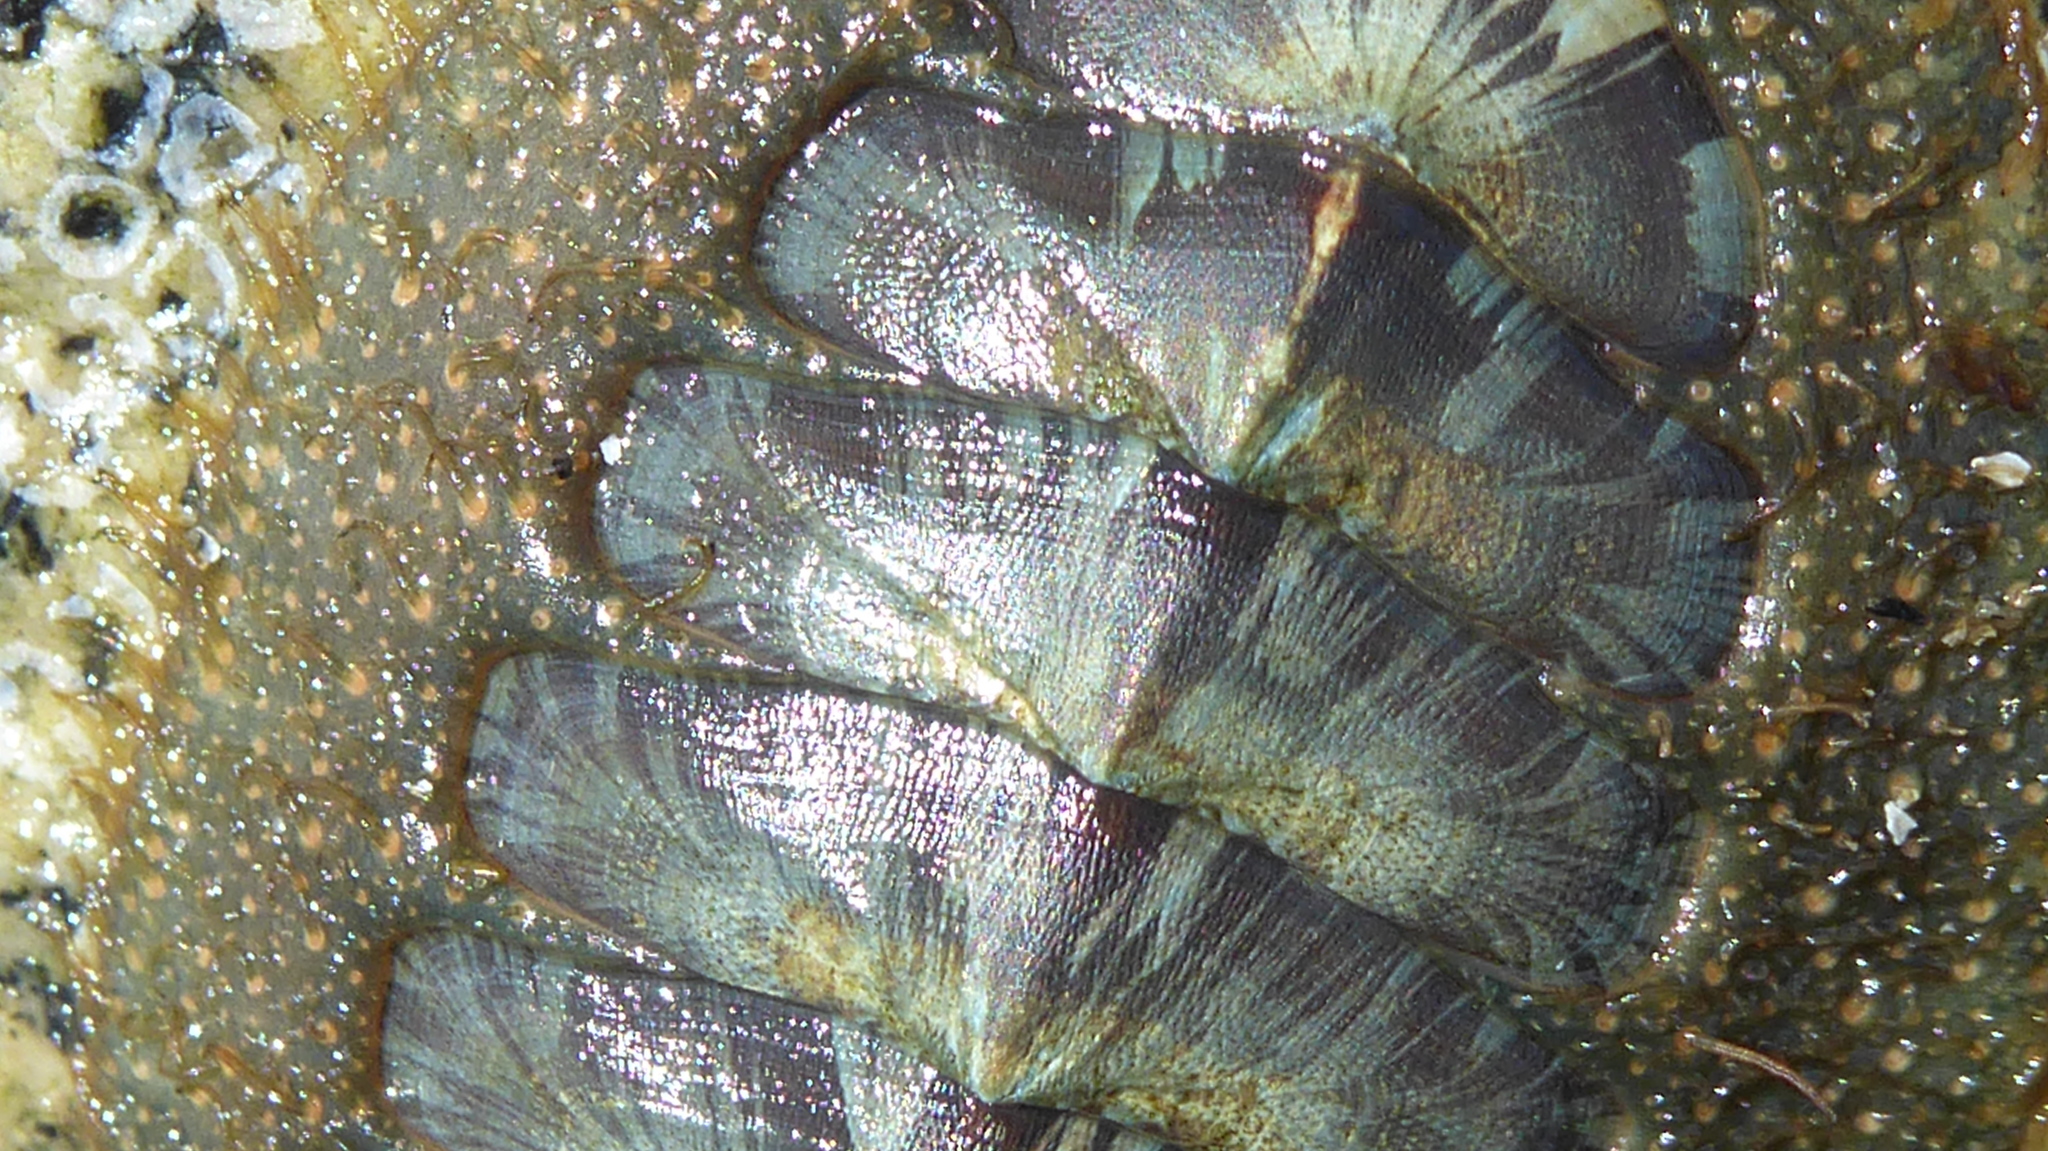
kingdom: Animalia
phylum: Mollusca
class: Polyplacophora
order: Chitonida
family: Mopaliidae
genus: Mopalia
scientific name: Mopalia lignosa
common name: Woody chiton
